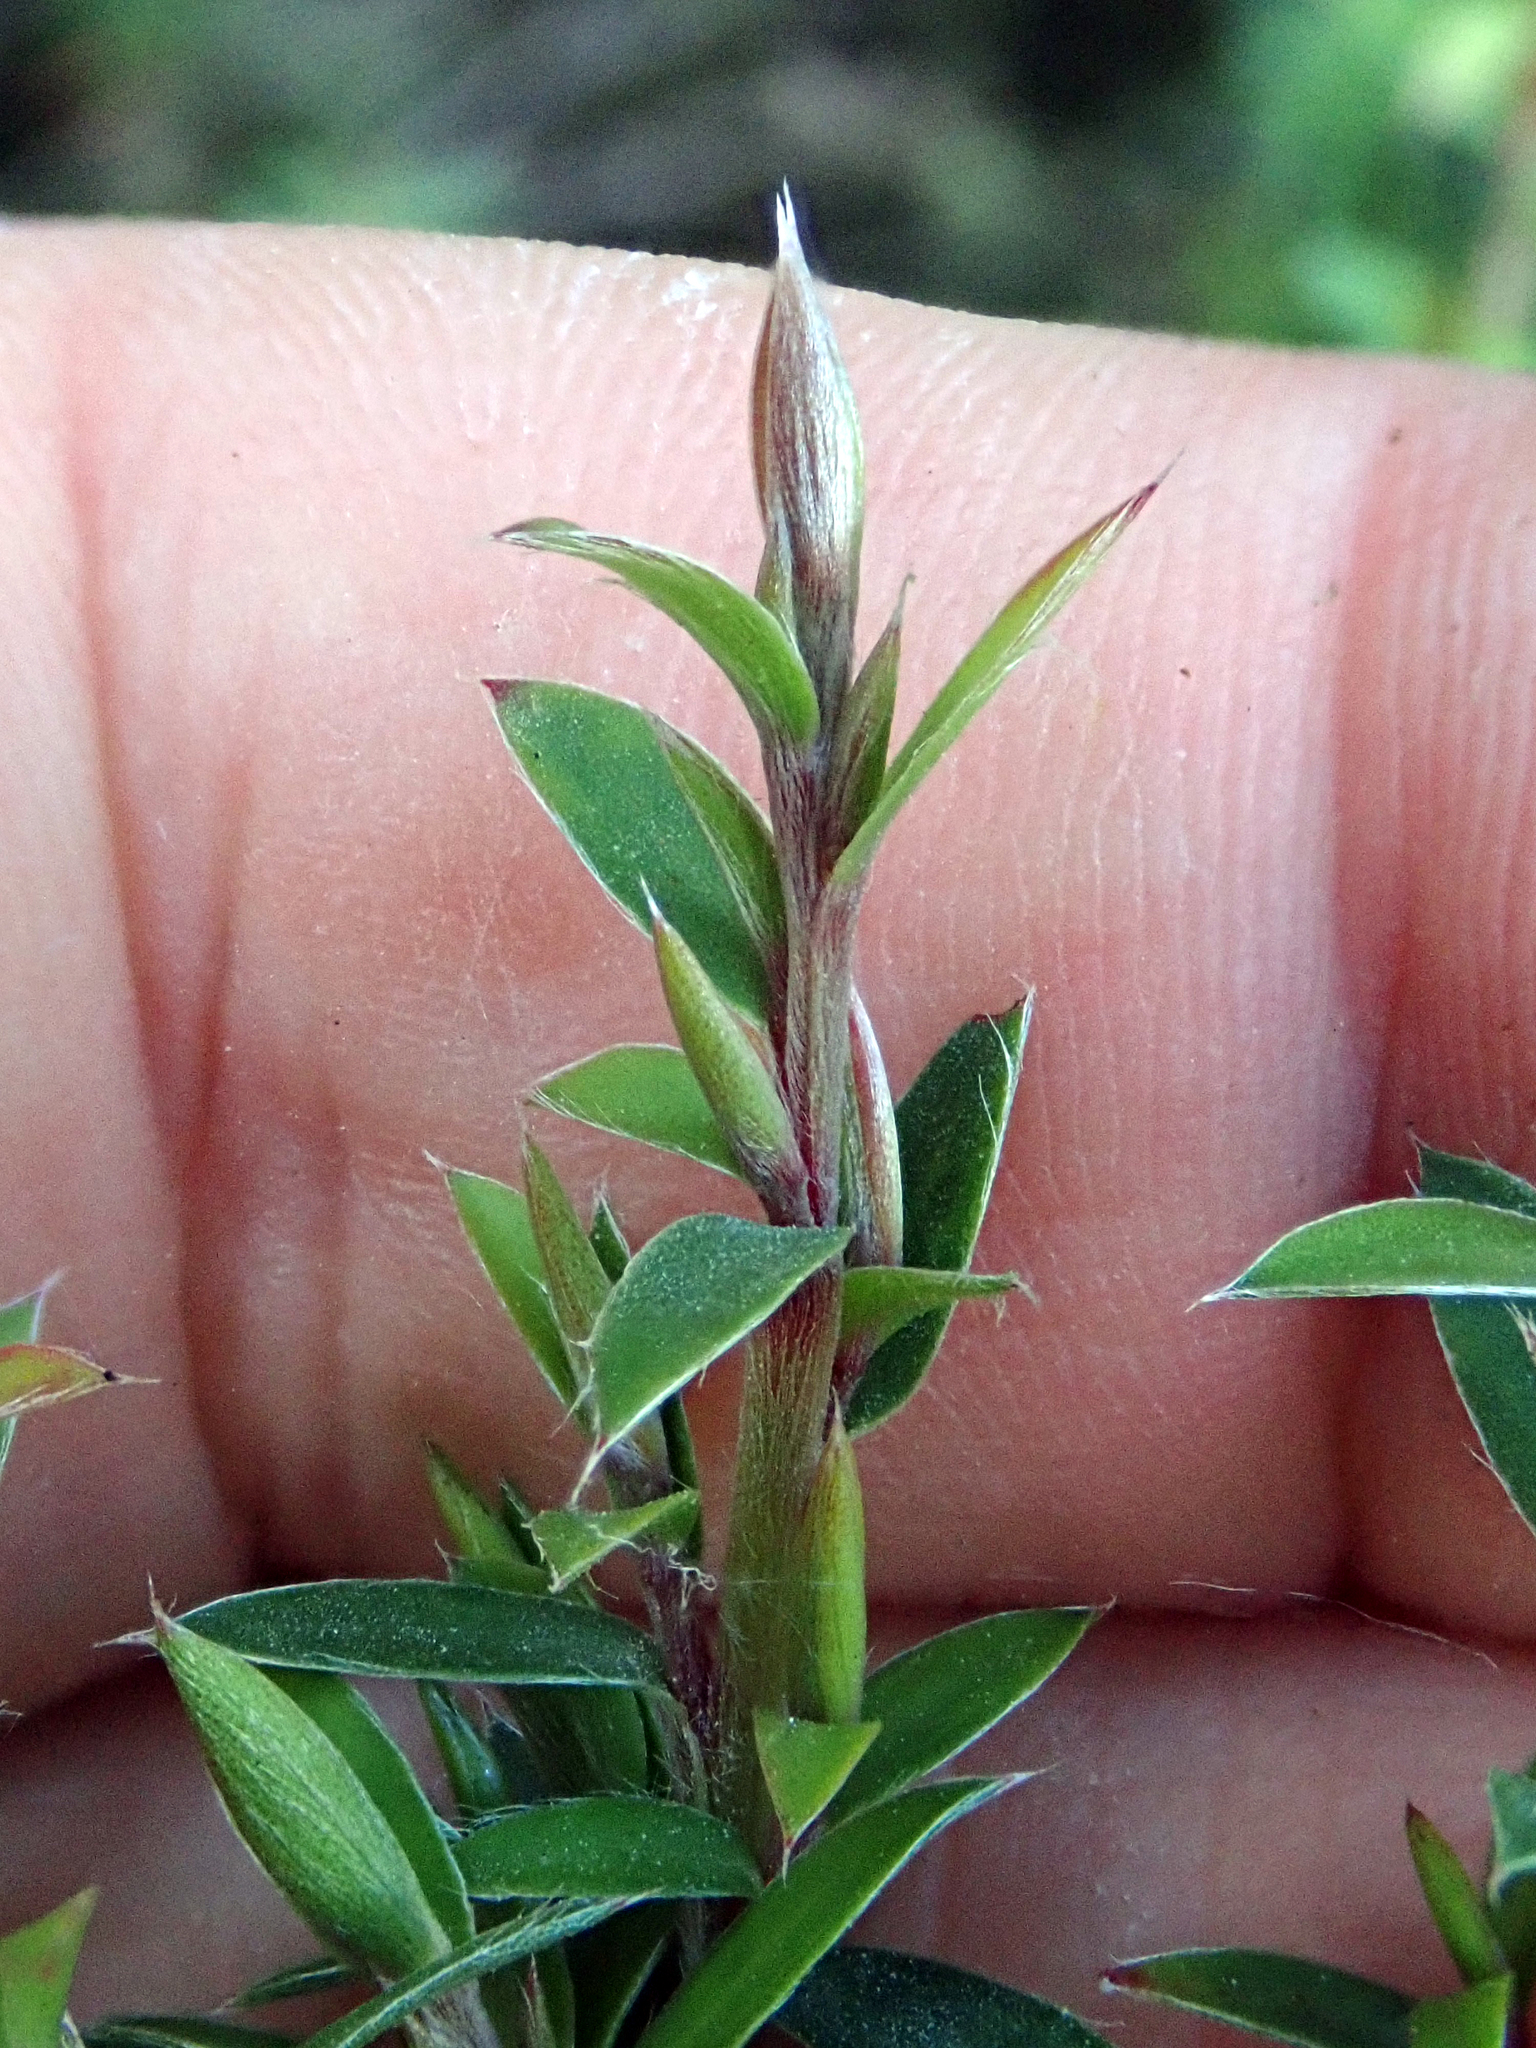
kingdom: Plantae
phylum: Tracheophyta
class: Magnoliopsida
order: Myrtales
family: Myrtaceae
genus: Leptospermum
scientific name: Leptospermum scoparium
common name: Broom tea-tree
